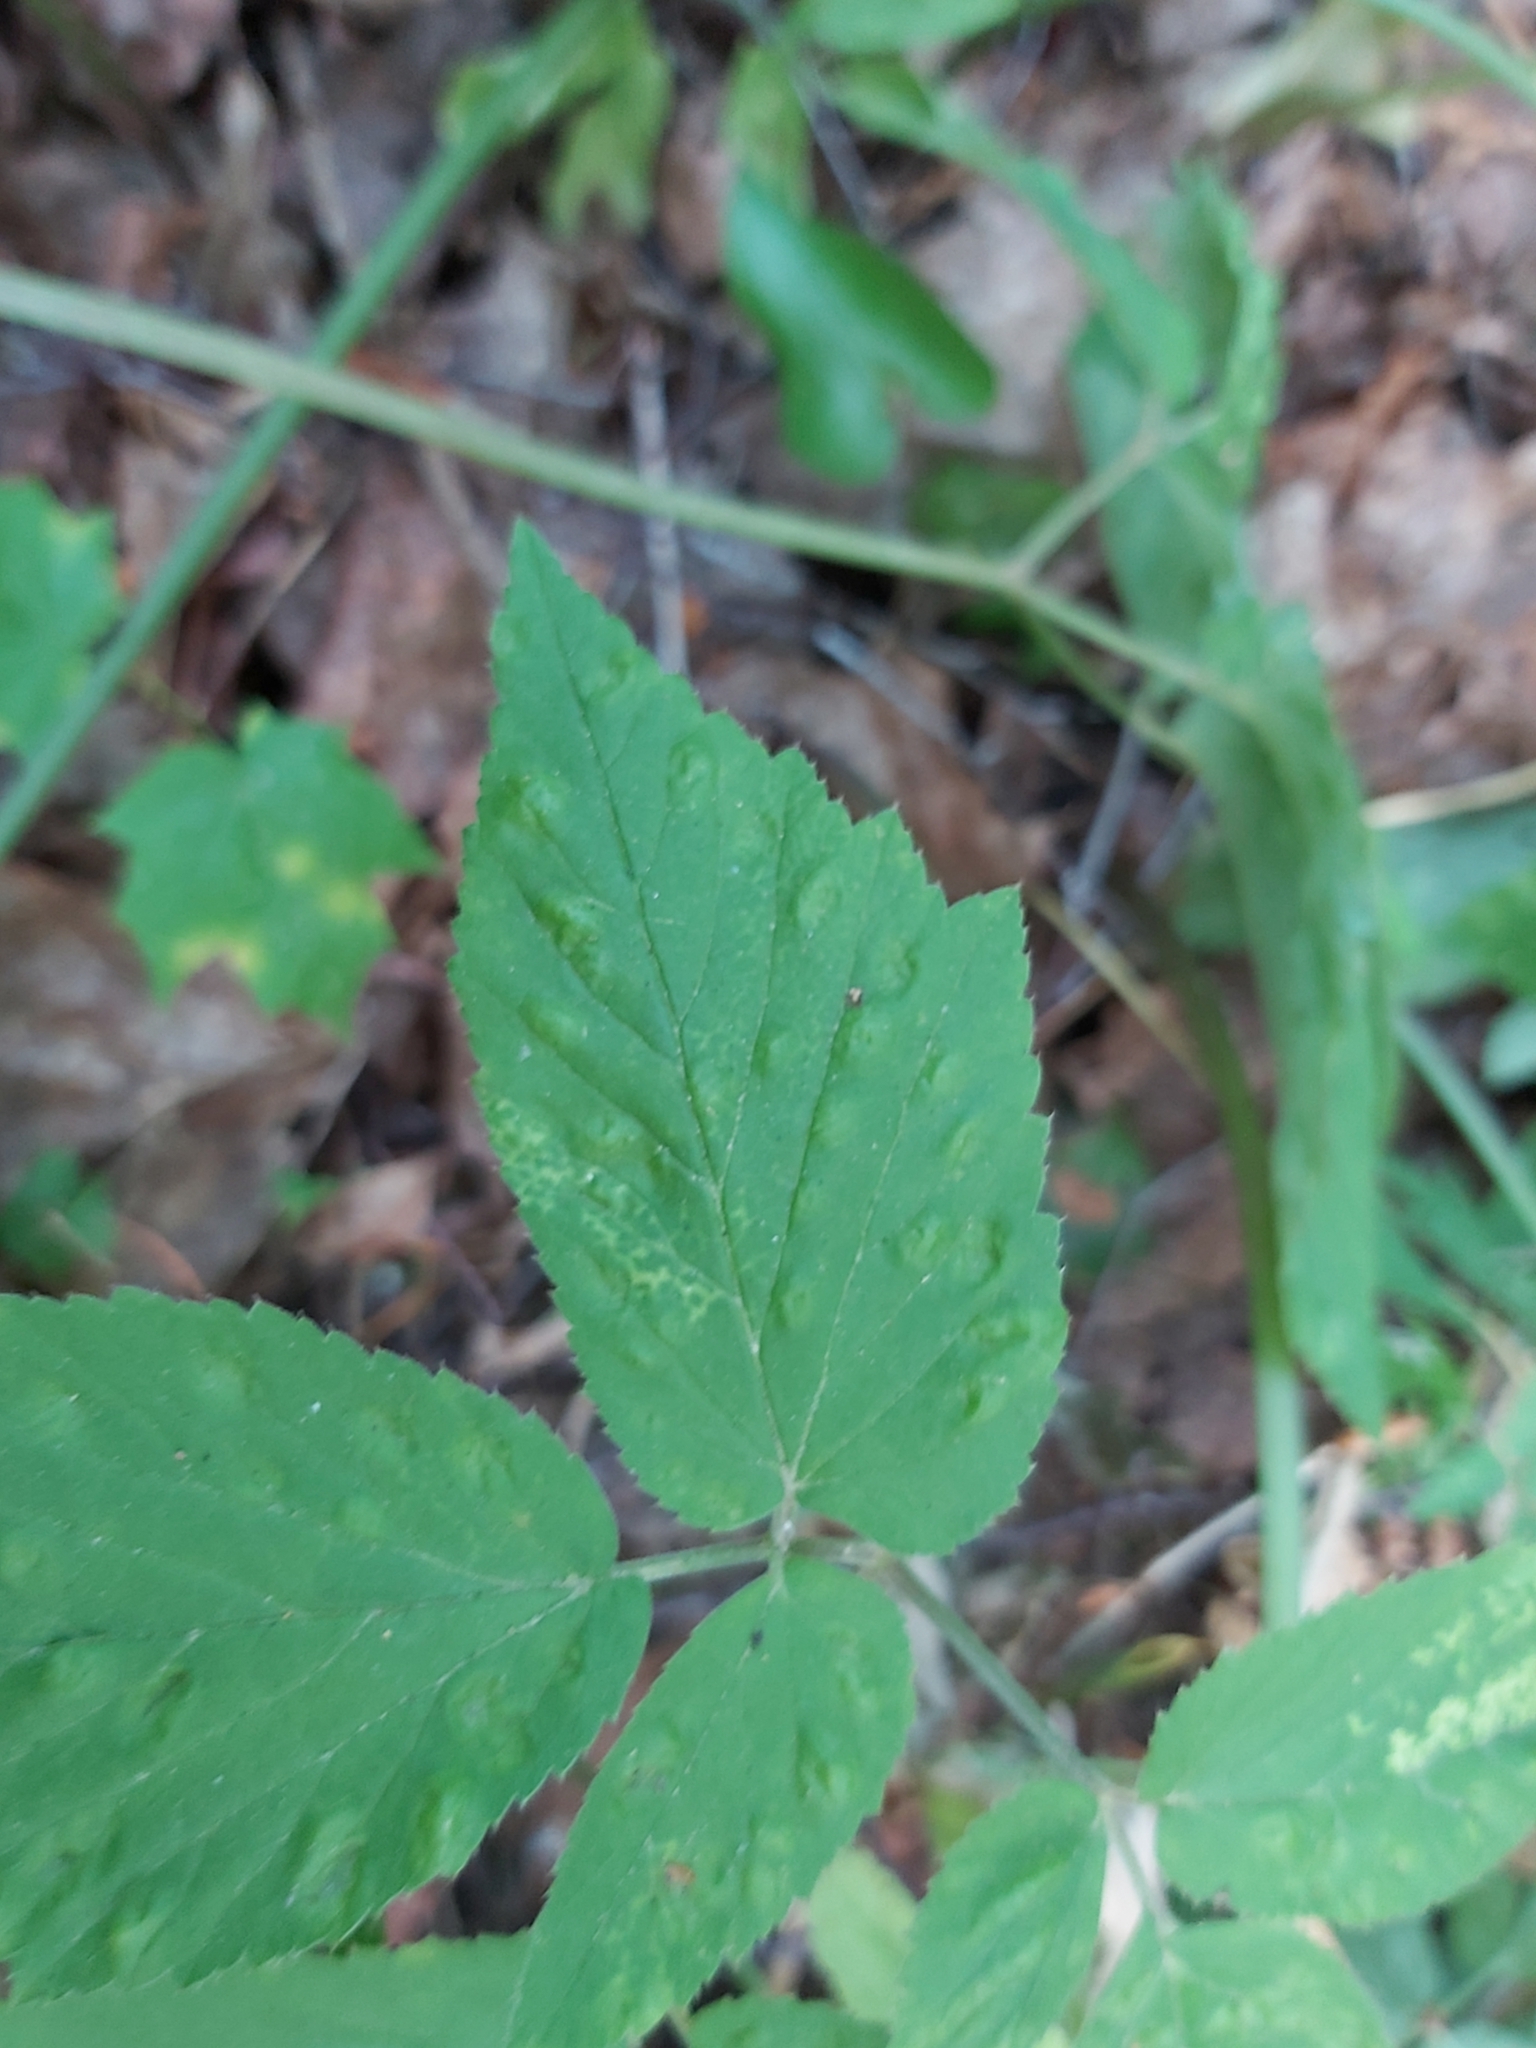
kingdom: Animalia
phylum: Arthropoda
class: Insecta
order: Hemiptera
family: Triozidae
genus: Trioza
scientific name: Trioza flavipennis
